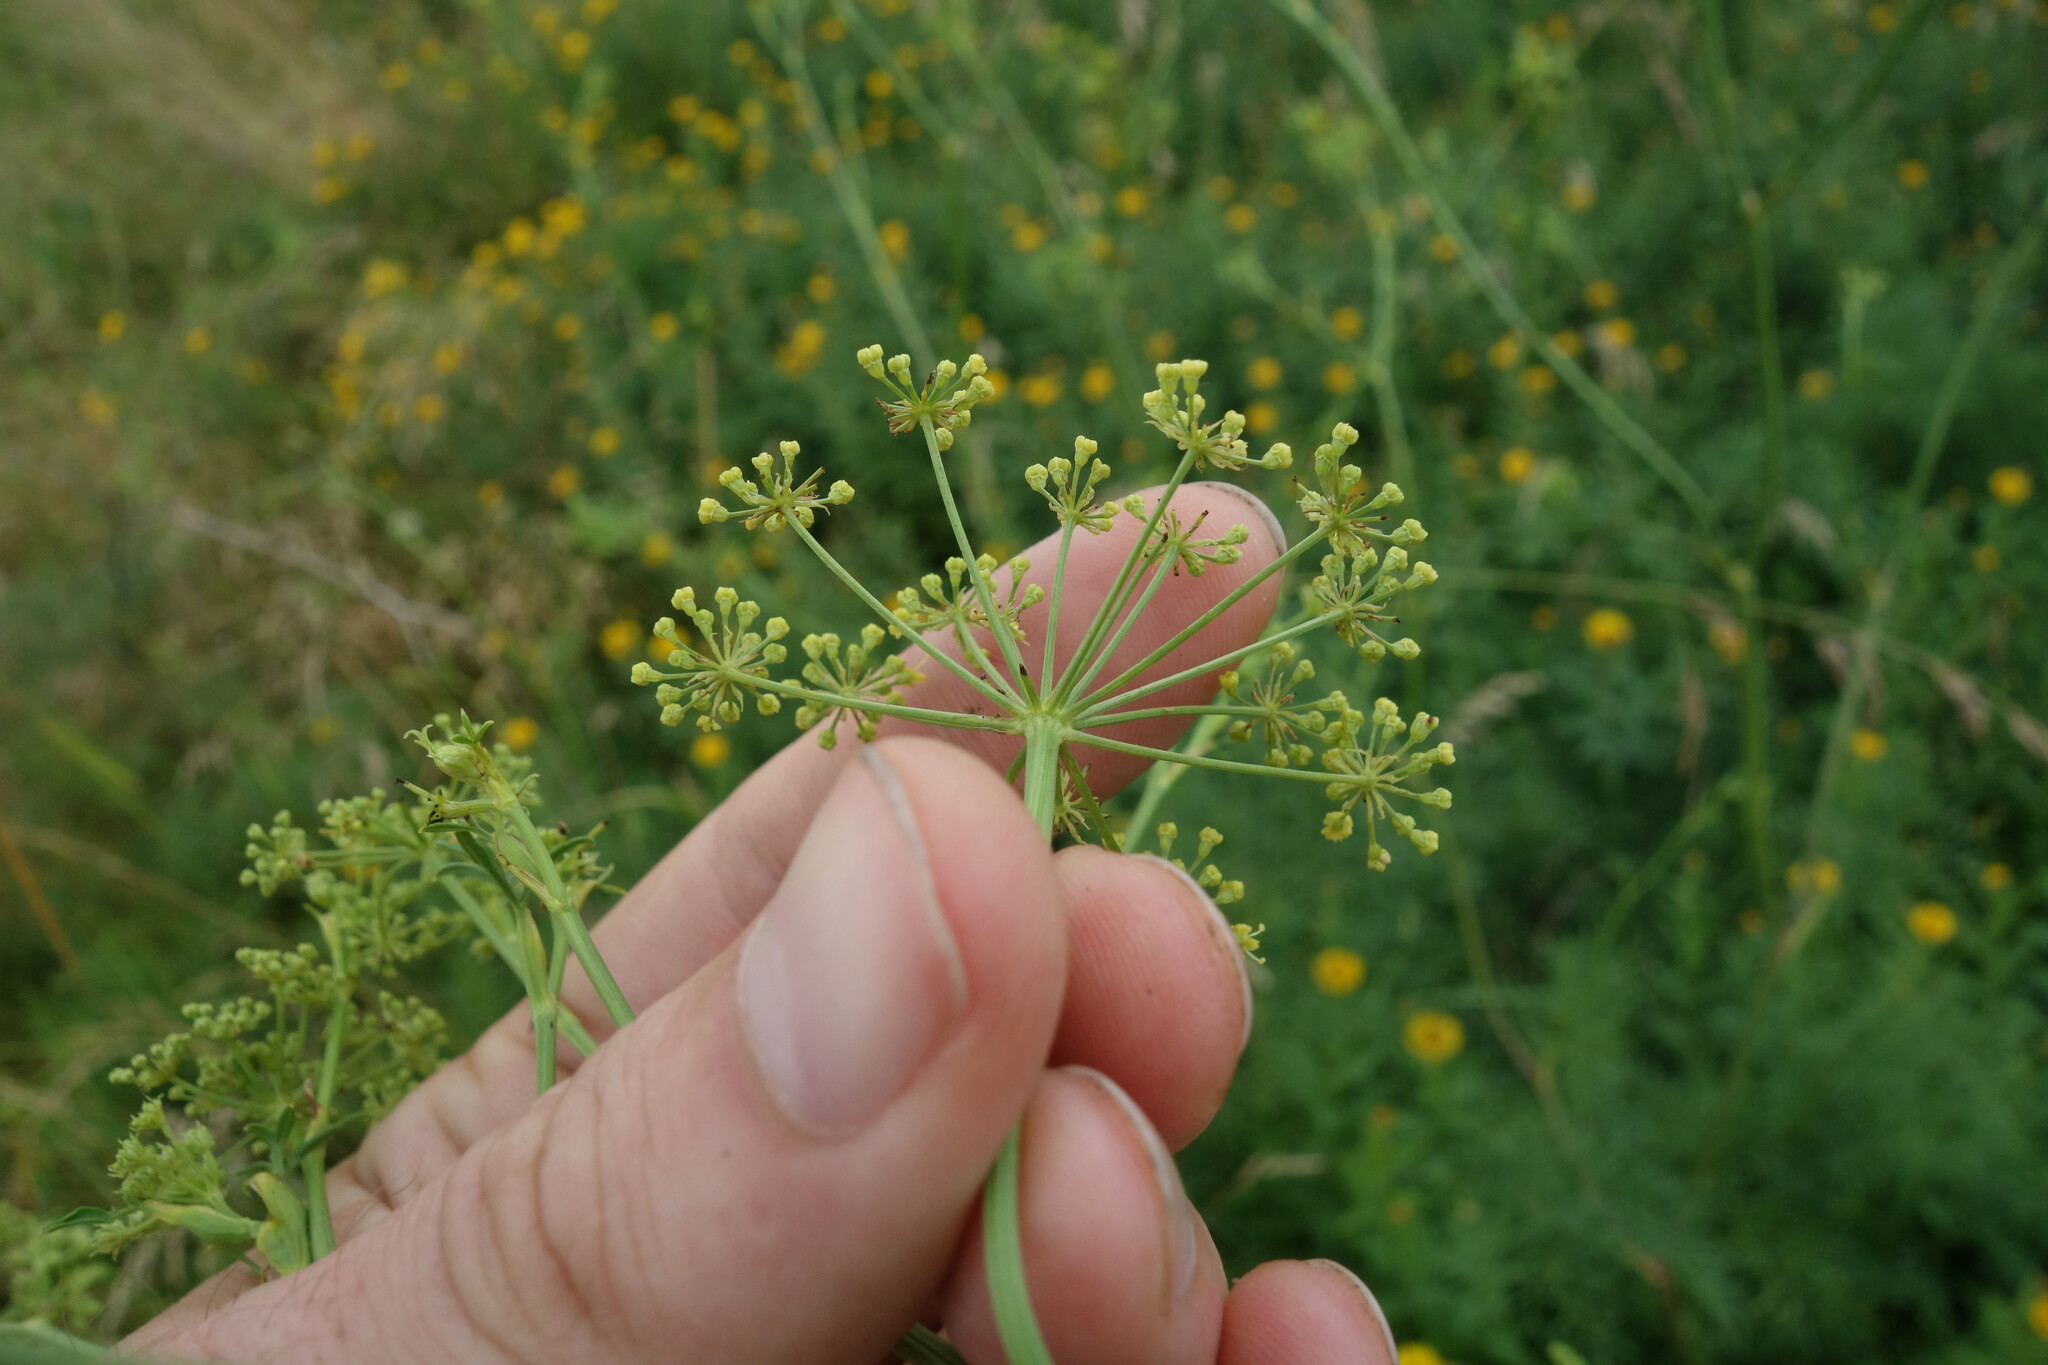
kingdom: Plantae
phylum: Tracheophyta
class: Magnoliopsida
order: Apiales
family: Apiaceae
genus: Silaum
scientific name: Silaum silaus
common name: Pepper-saxifrage
